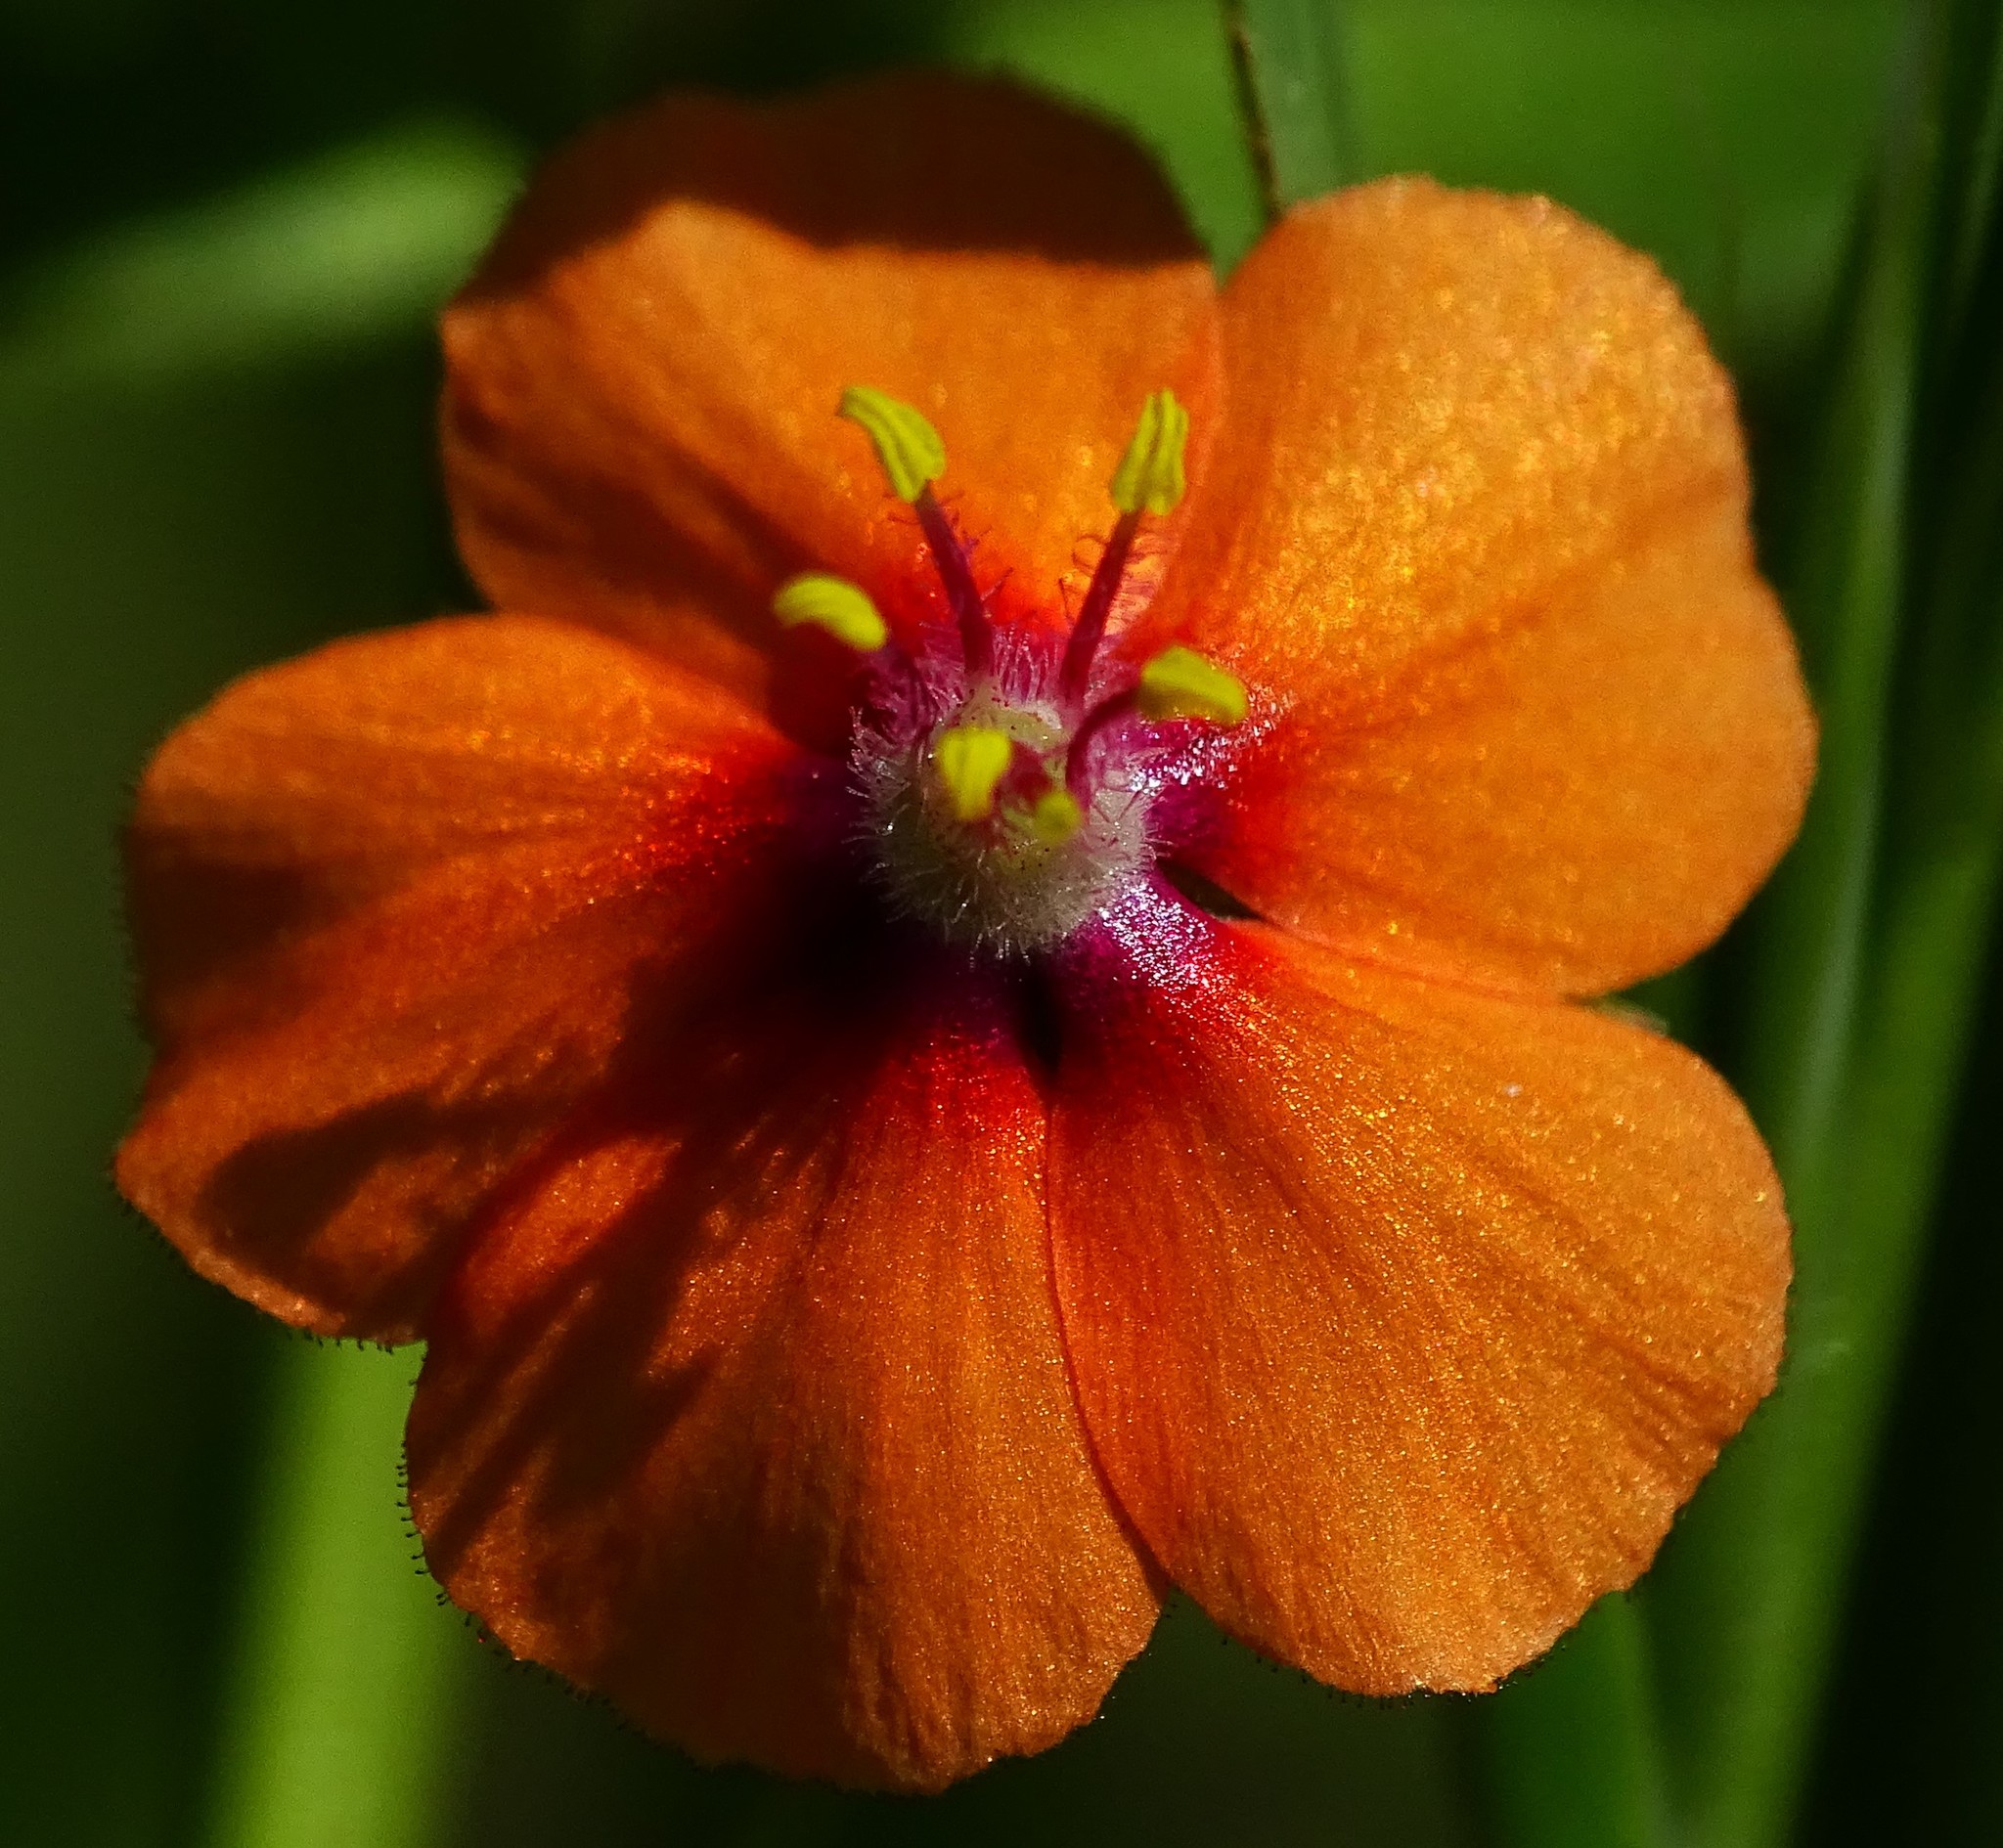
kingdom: Plantae
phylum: Tracheophyta
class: Magnoliopsida
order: Ericales
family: Primulaceae
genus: Lysimachia
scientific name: Lysimachia arvensis
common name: Scarlet pimpernel
